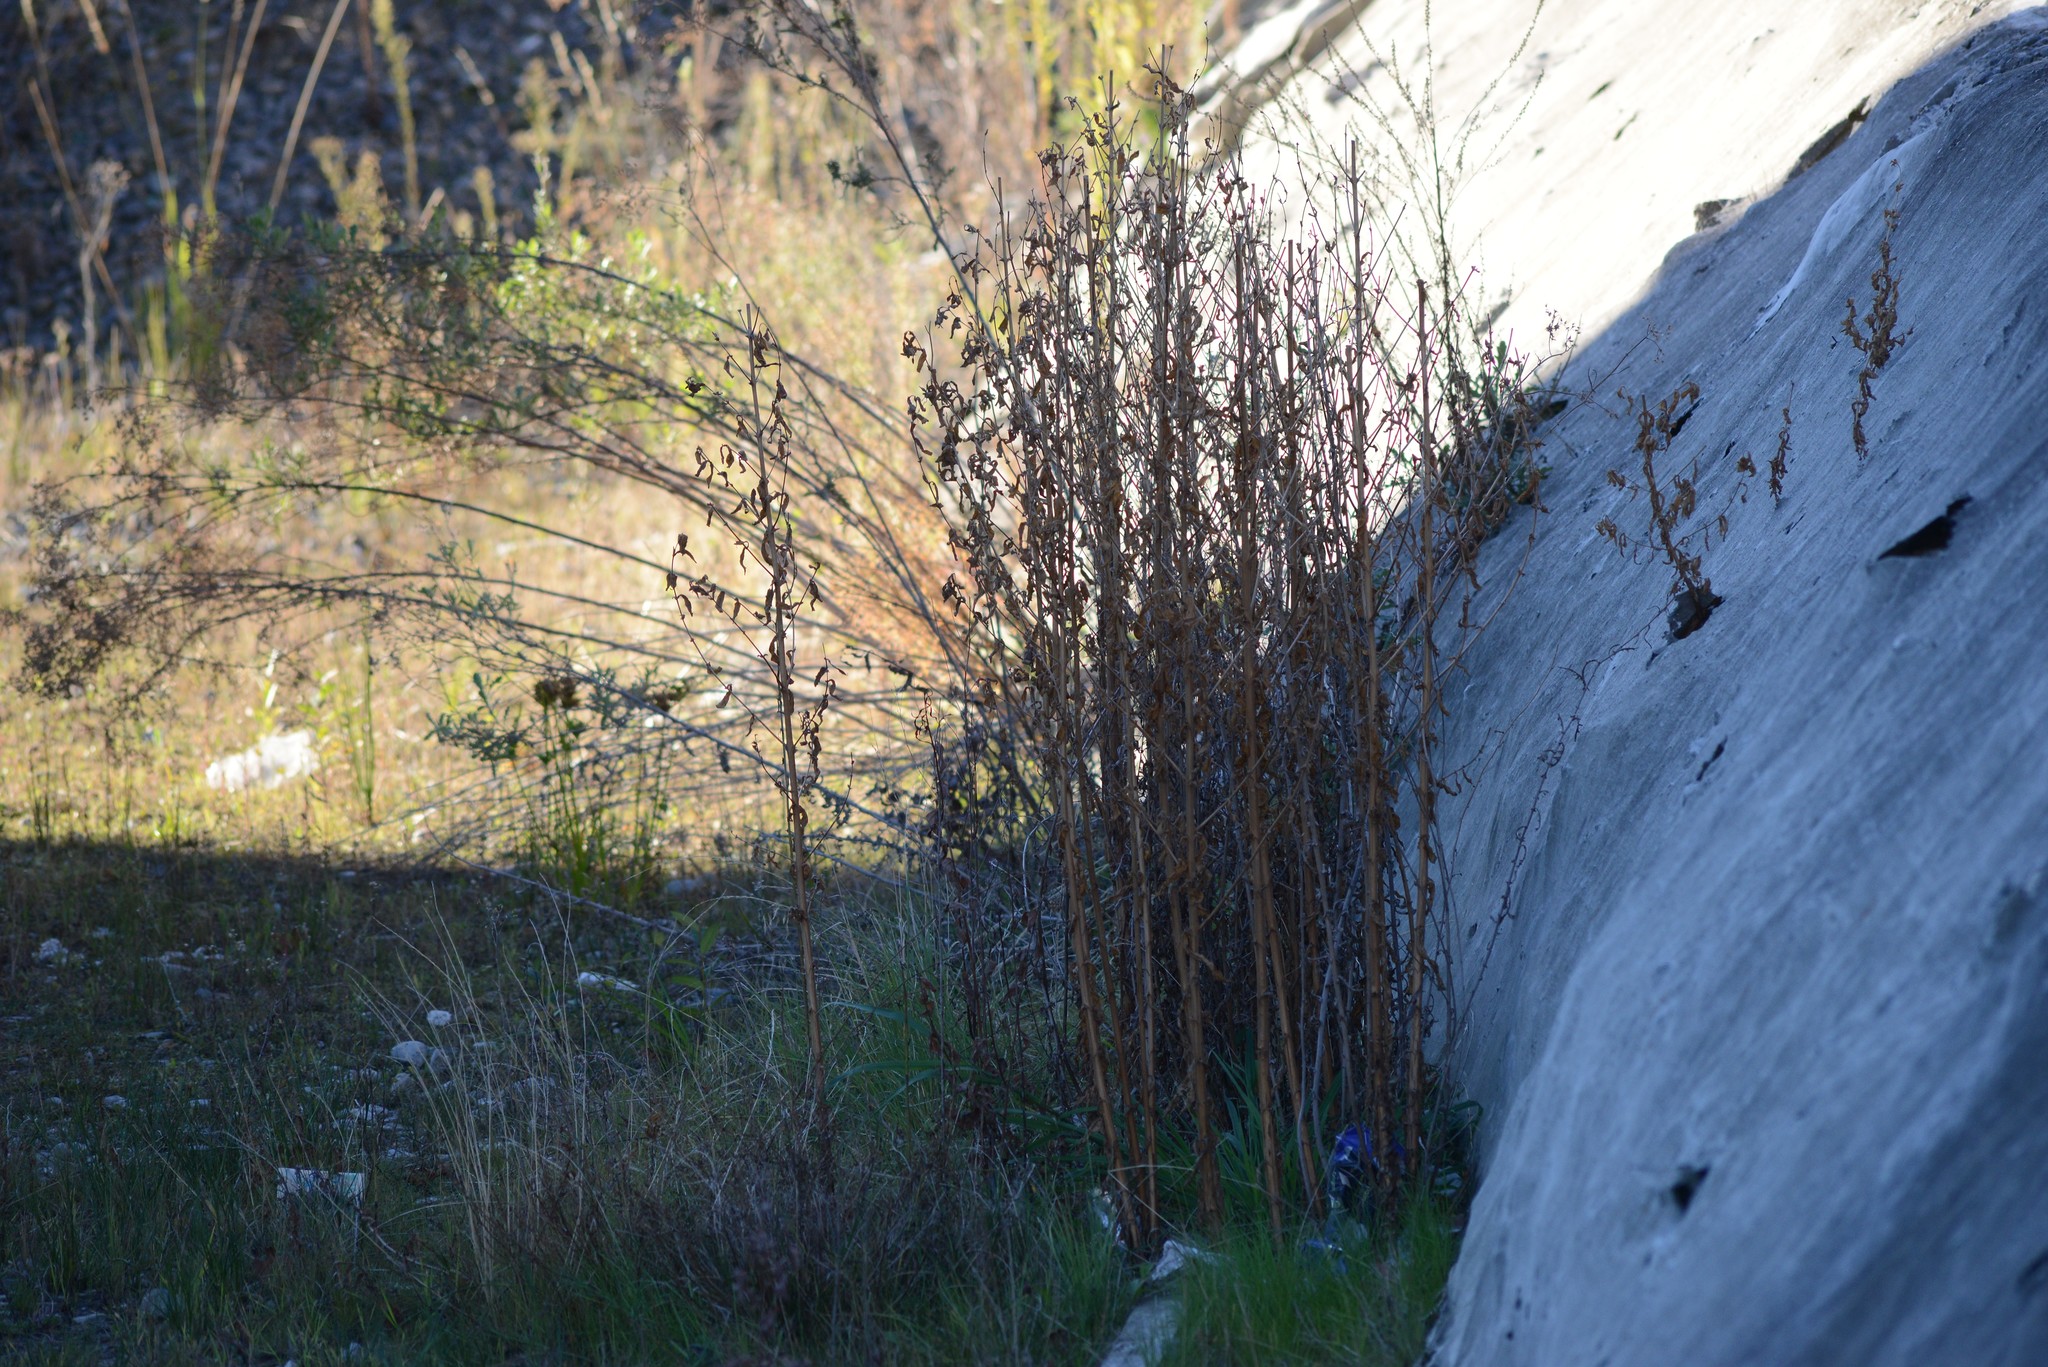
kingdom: Plantae
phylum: Tracheophyta
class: Magnoliopsida
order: Myrtales
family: Onagraceae
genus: Epilobium
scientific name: Epilobium hirsutum
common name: Great willowherb
